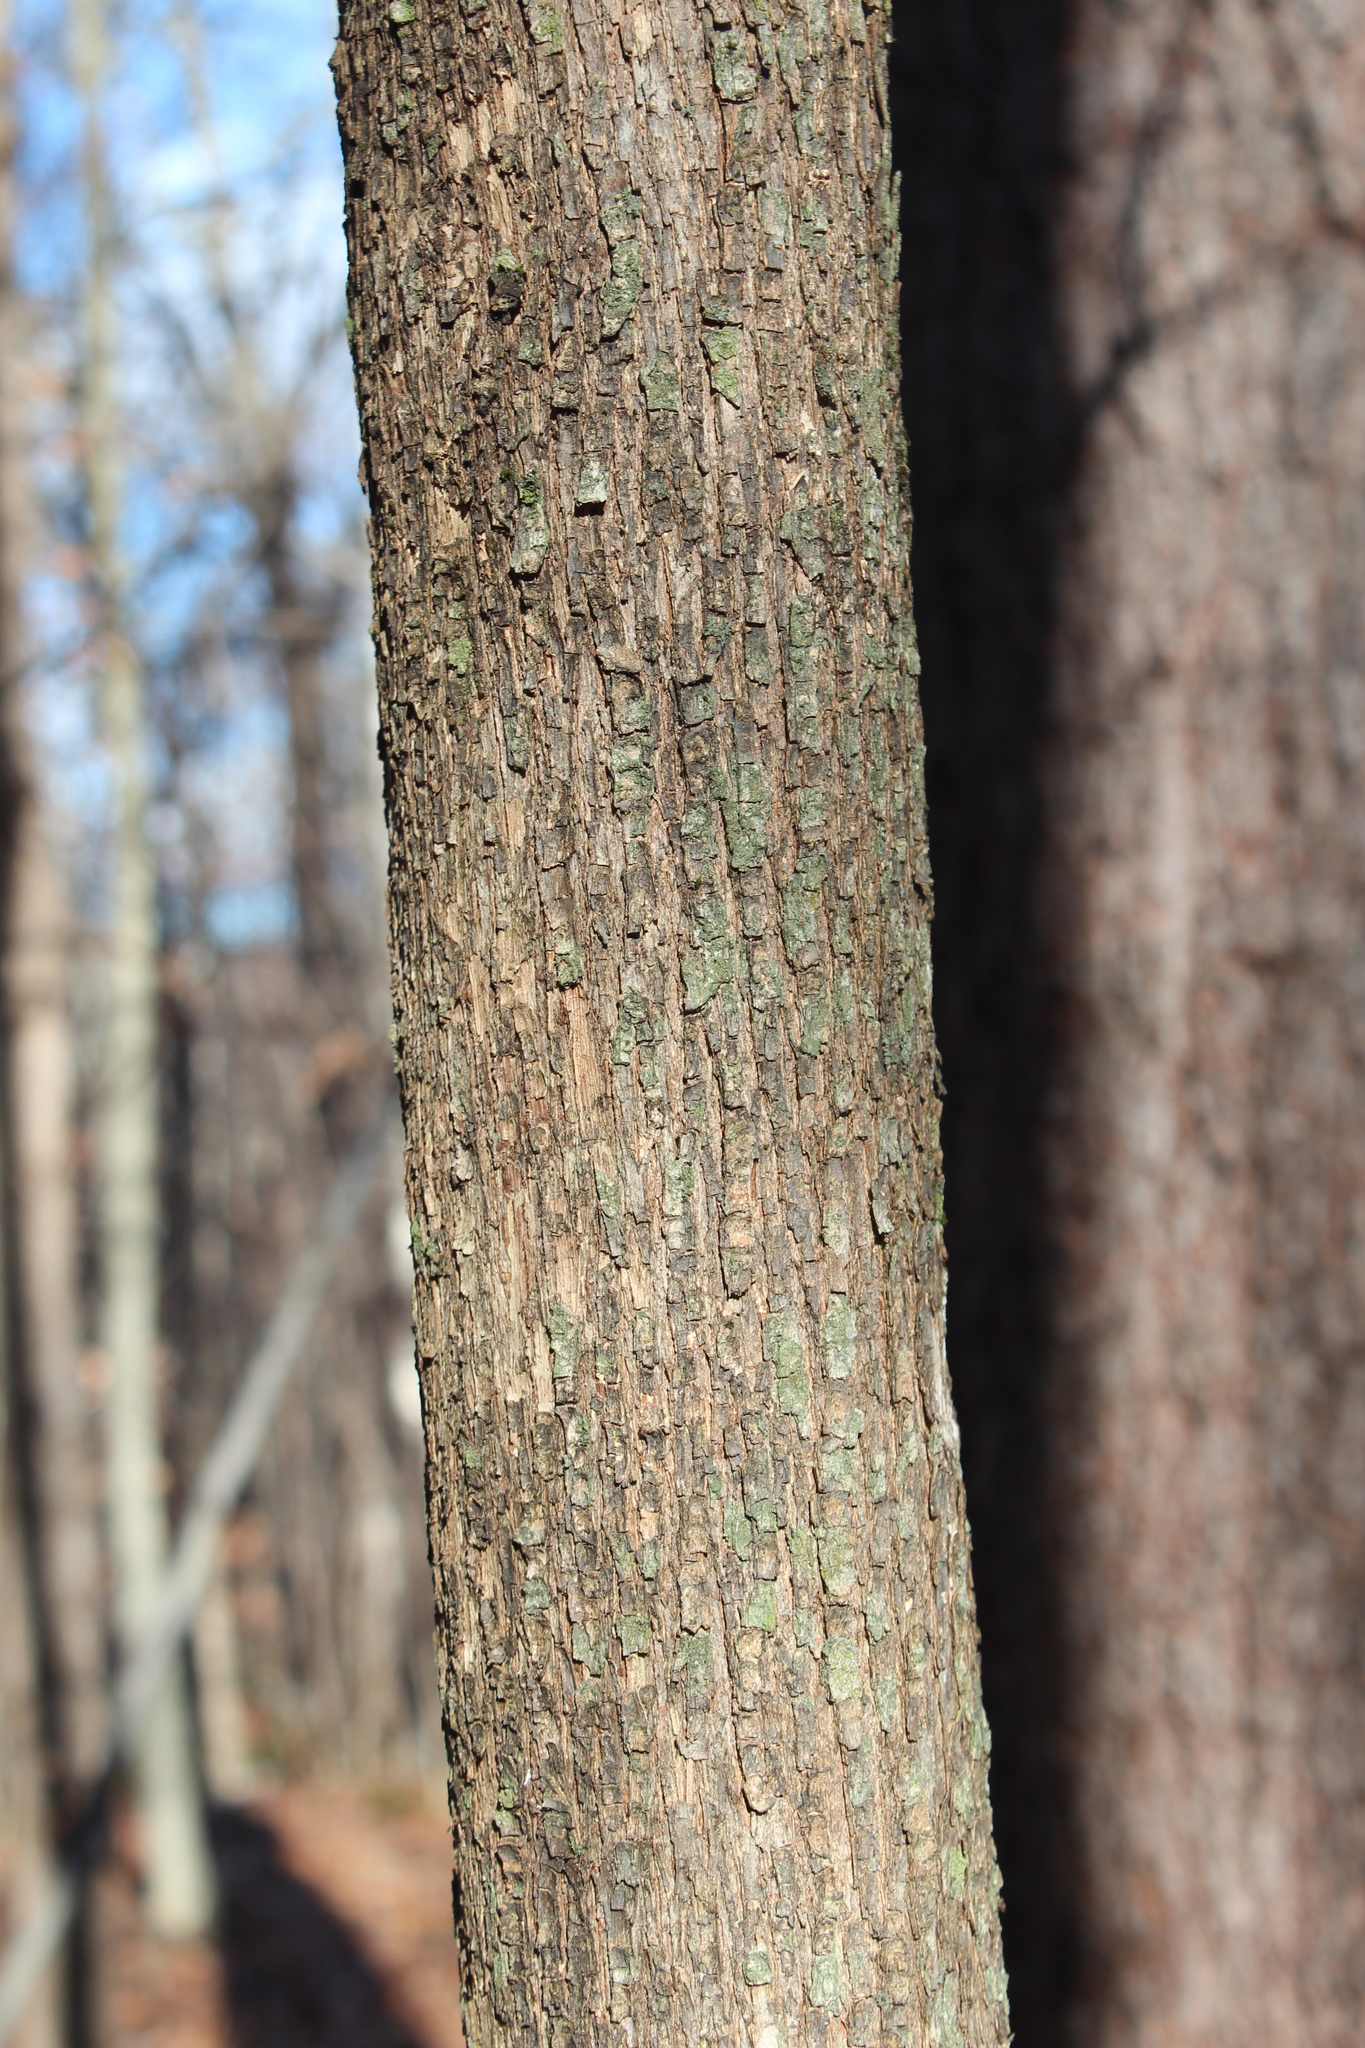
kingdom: Plantae
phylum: Tracheophyta
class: Magnoliopsida
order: Fagales
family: Betulaceae
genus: Ostrya
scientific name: Ostrya virginiana
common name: Ironwood
